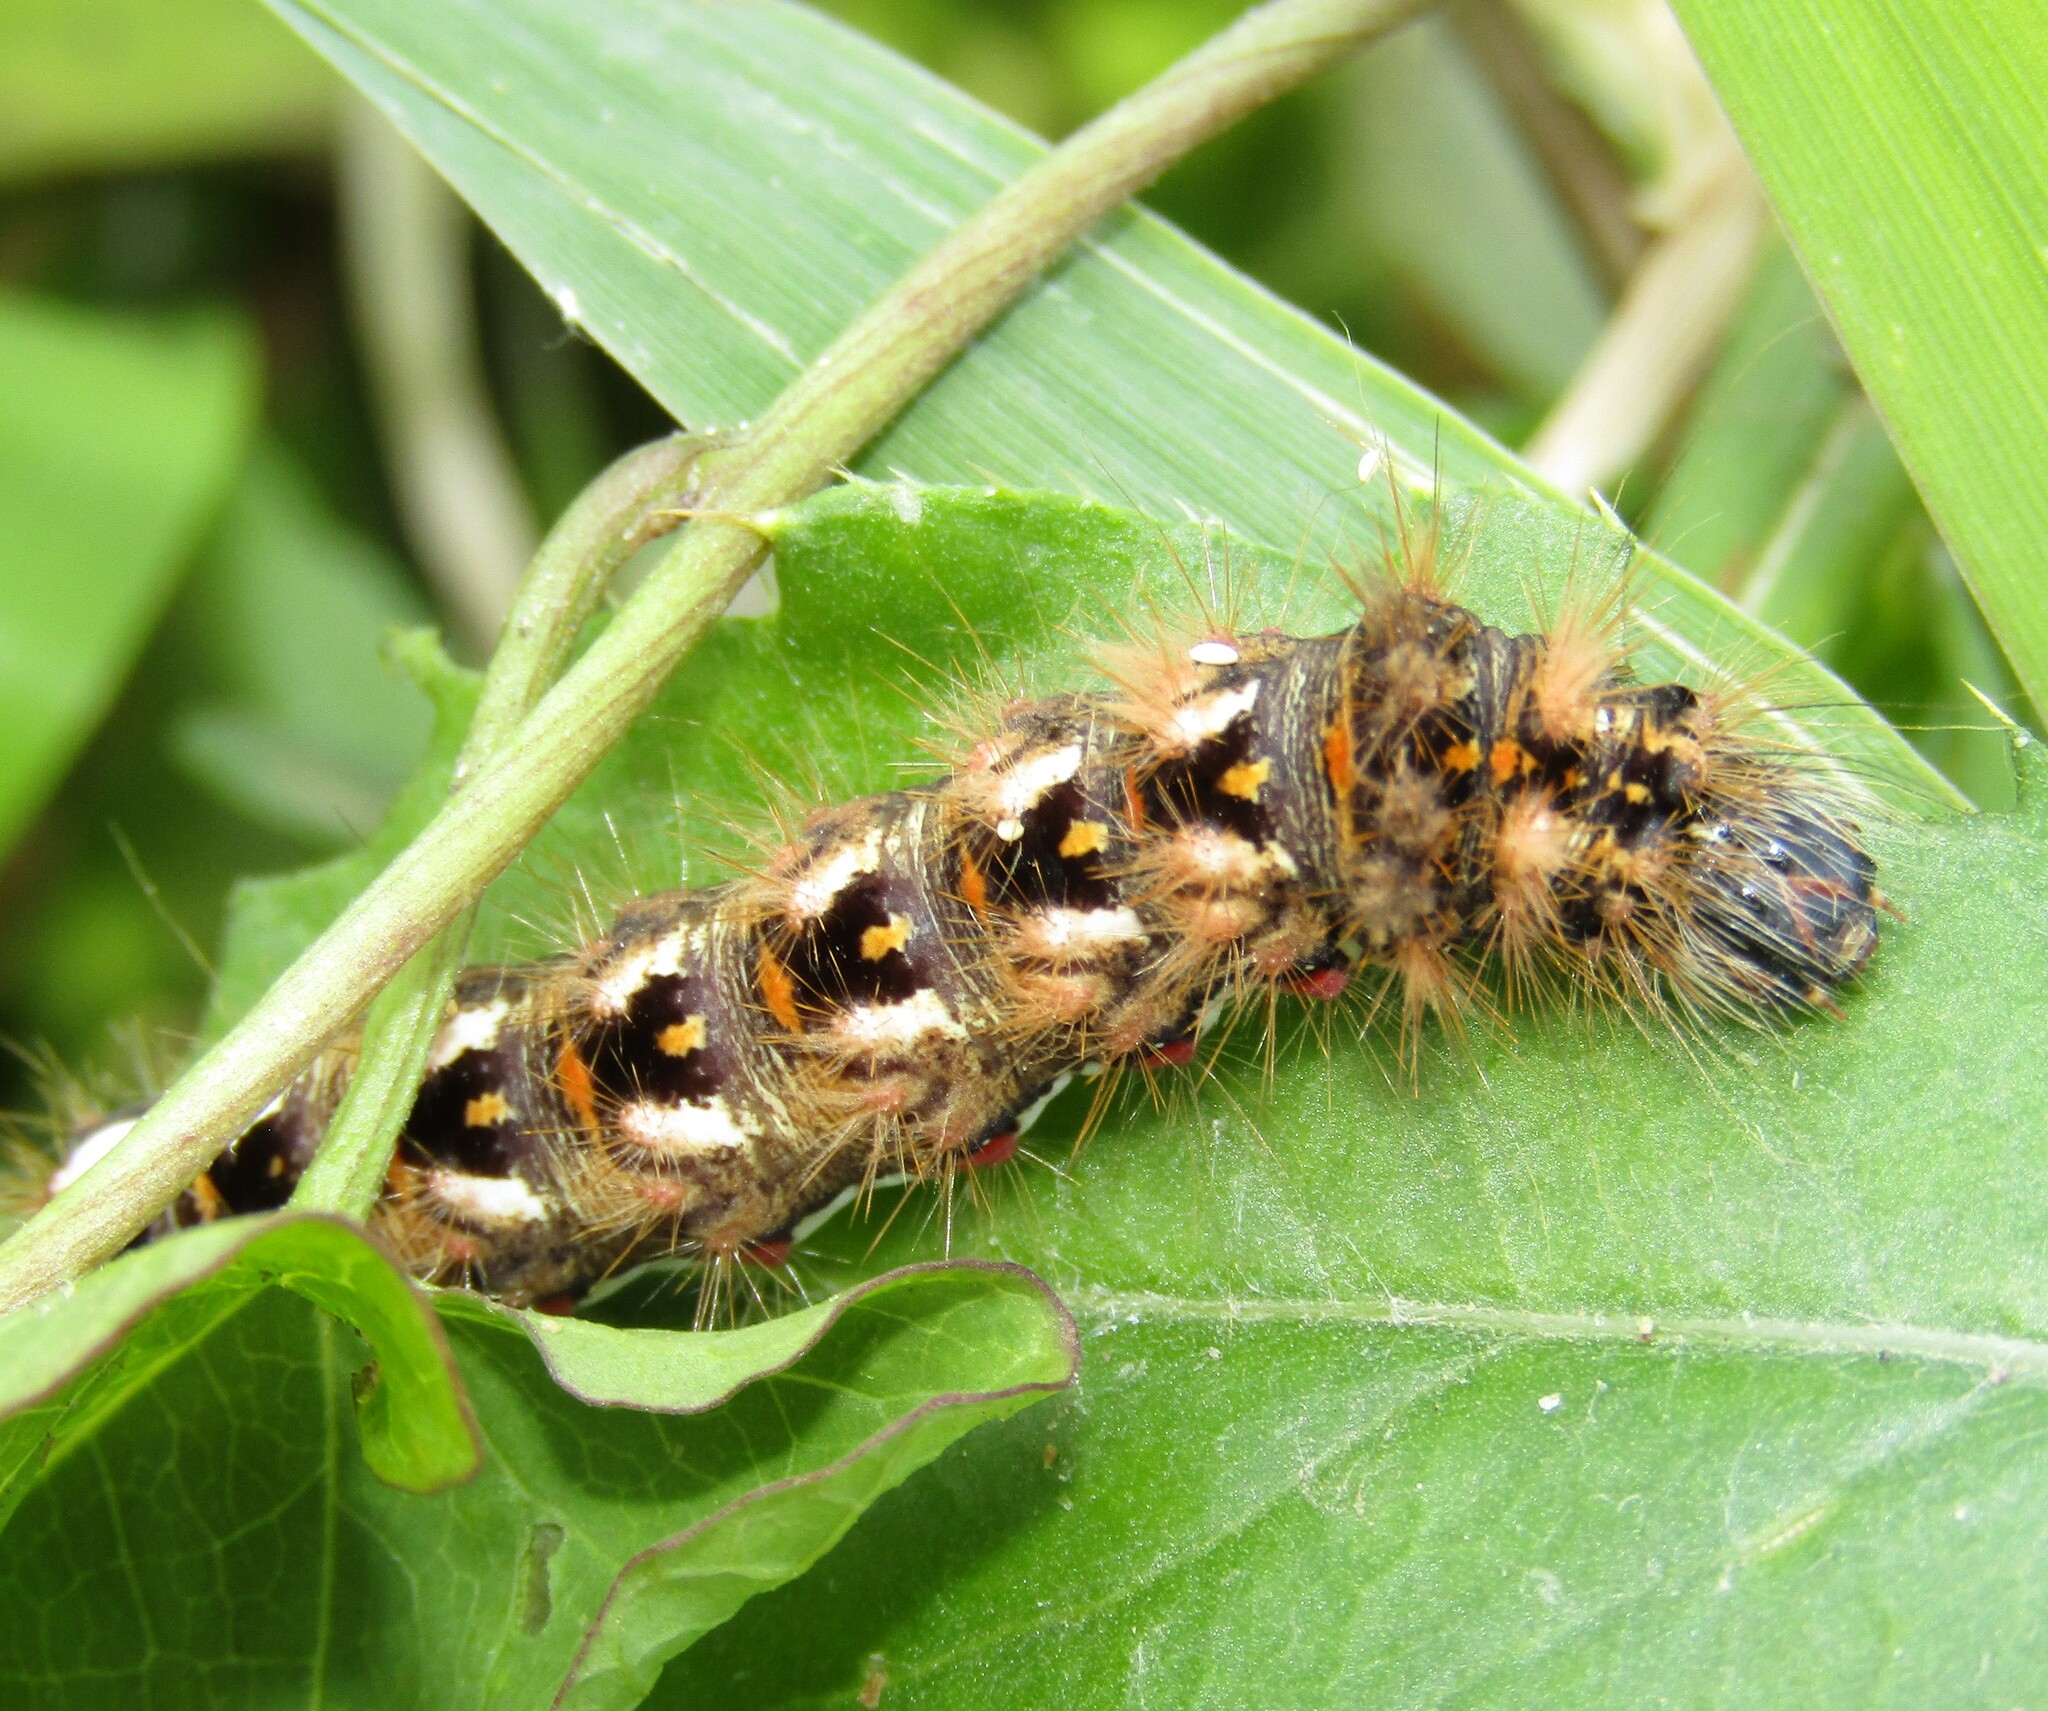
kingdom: Animalia
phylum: Arthropoda
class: Insecta
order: Lepidoptera
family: Noctuidae
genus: Acronicta
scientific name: Acronicta rumicis
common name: Knot grass
